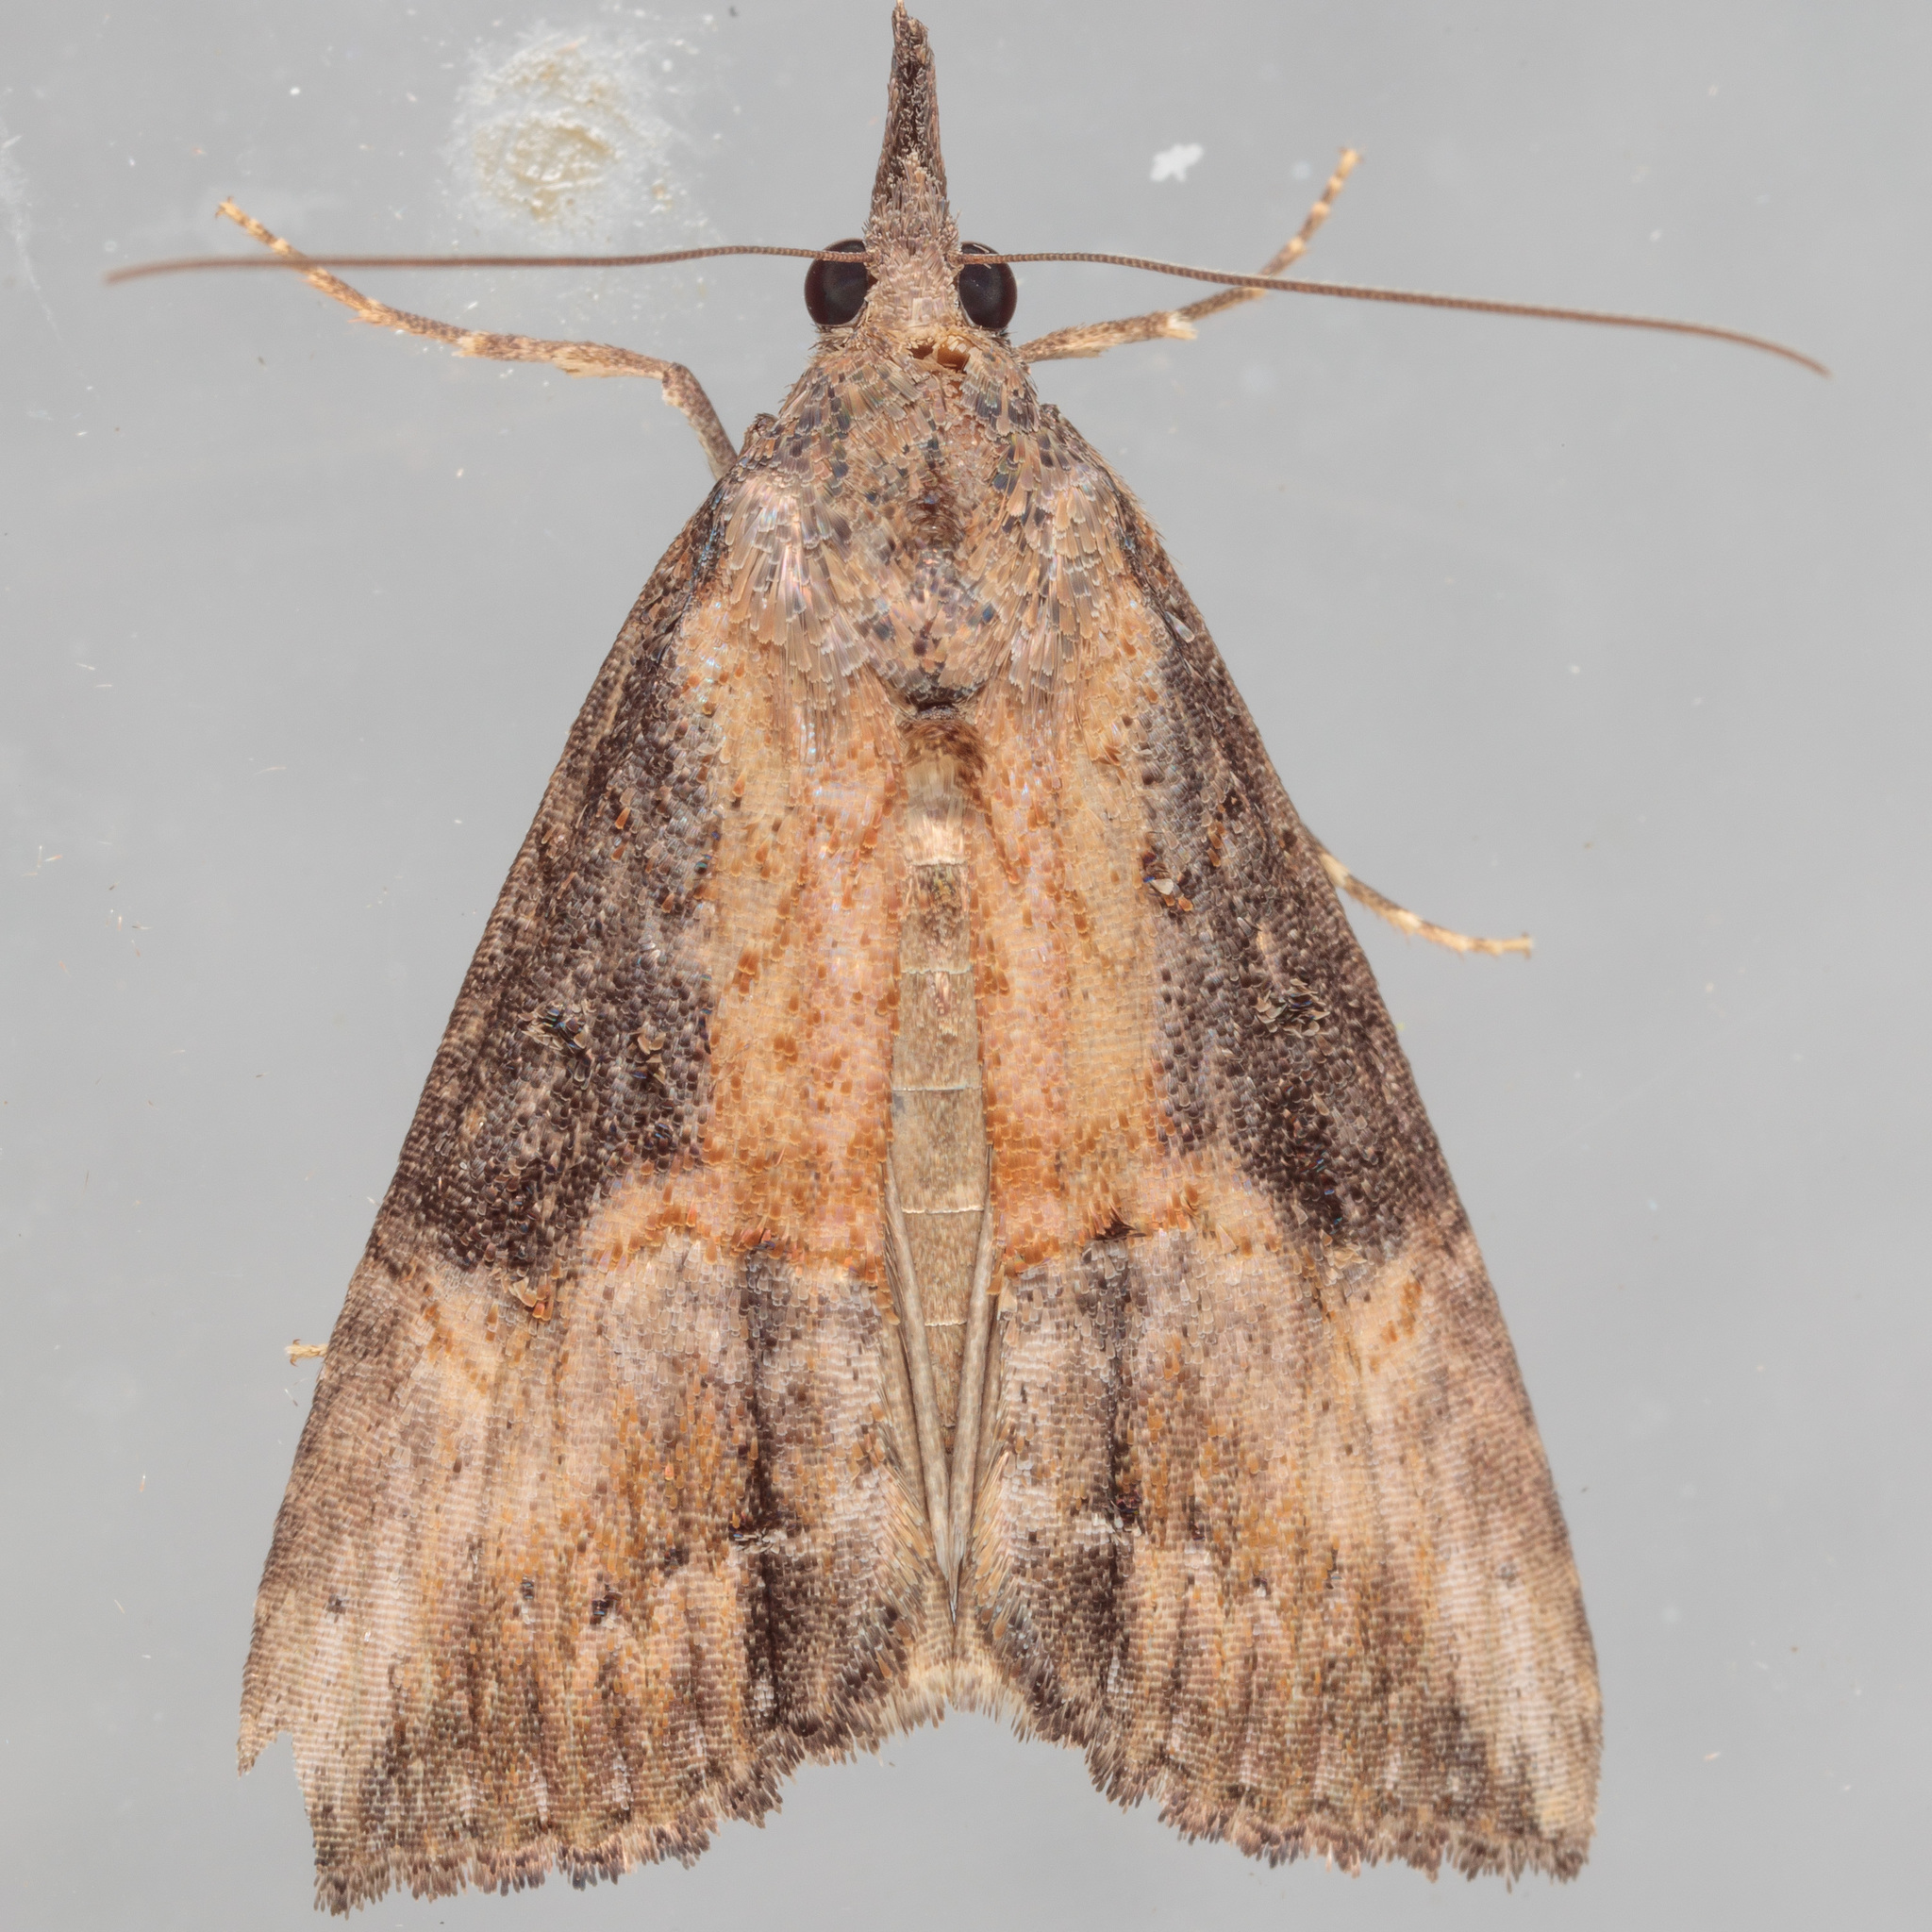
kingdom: Animalia
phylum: Arthropoda
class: Insecta
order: Lepidoptera
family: Erebidae
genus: Hypena
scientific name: Hypena scabra
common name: Green cloverworm
